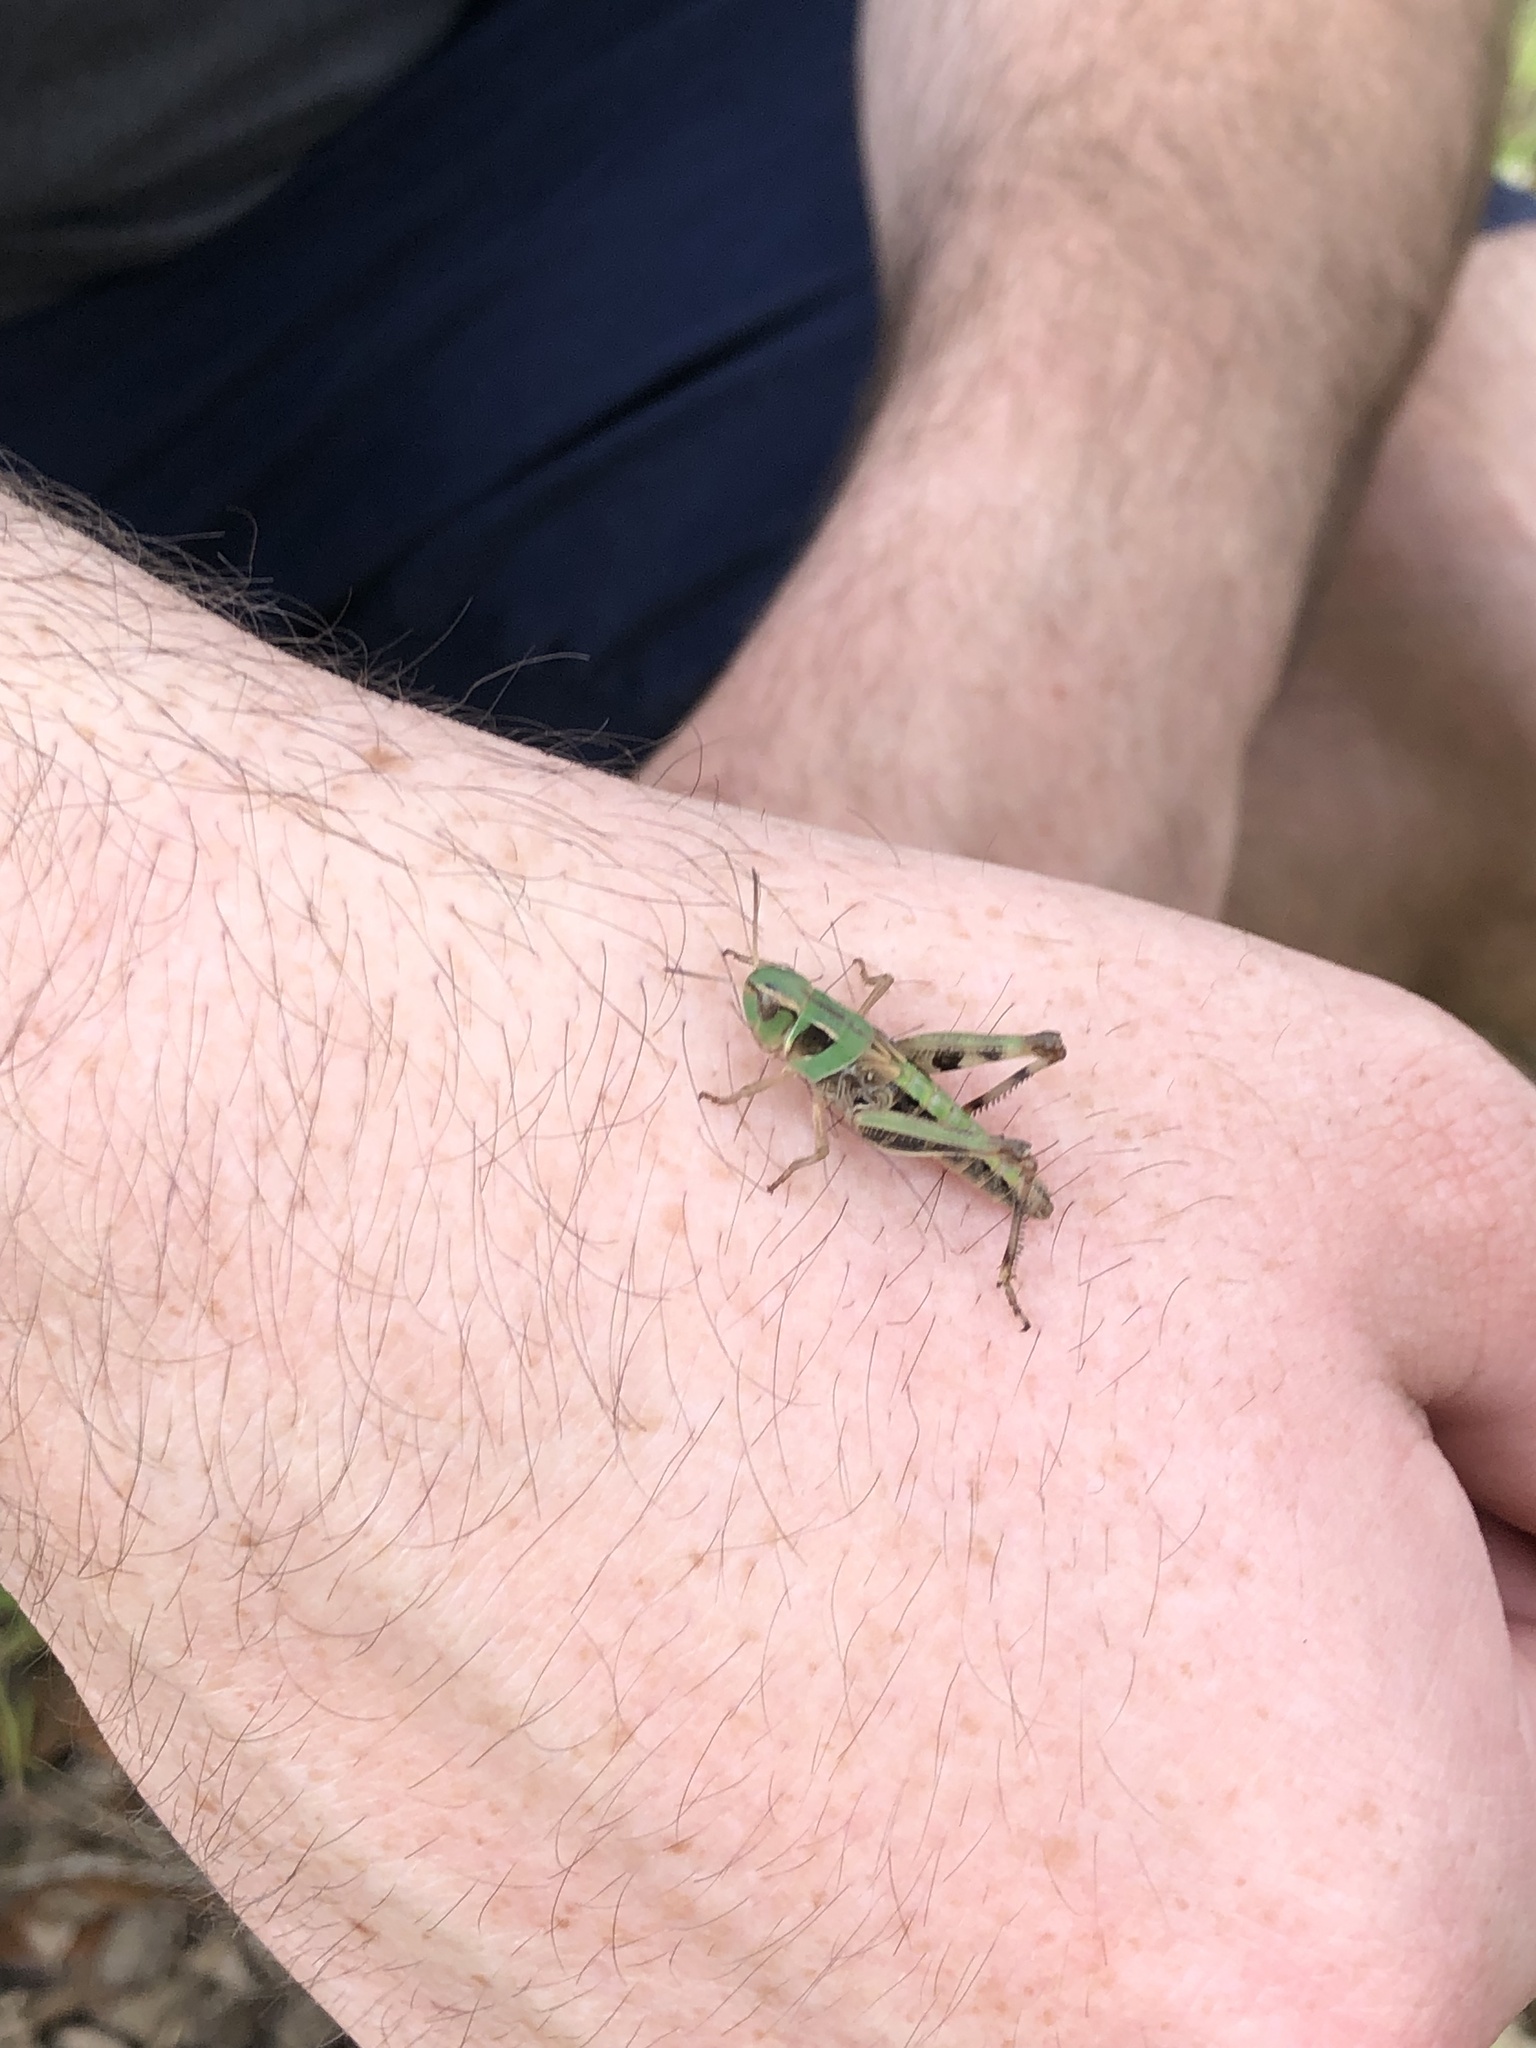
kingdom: Animalia
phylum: Arthropoda
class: Insecta
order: Orthoptera
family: Acrididae
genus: Boopedon
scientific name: Boopedon gracile
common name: Graceful range grasshopper
